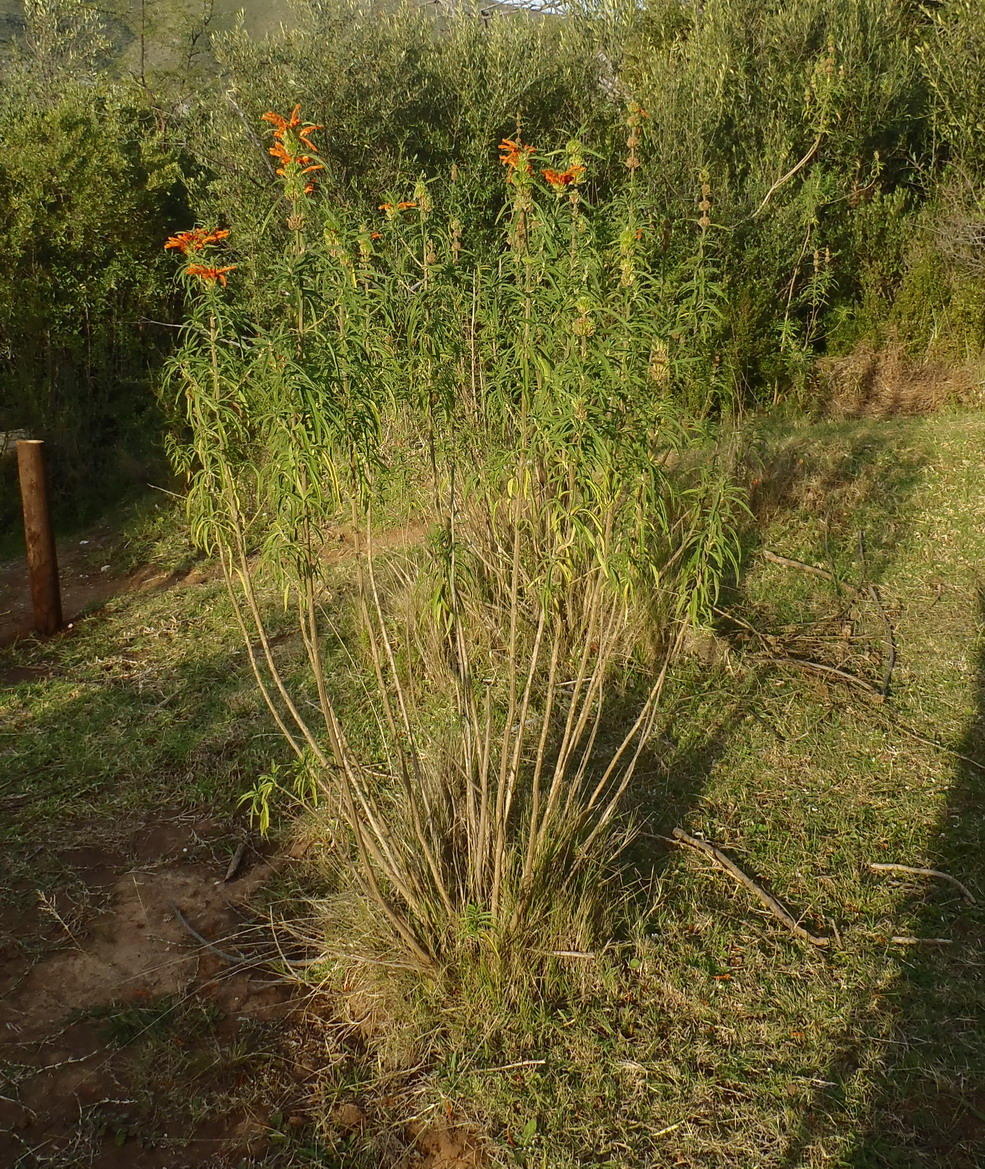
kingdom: Plantae
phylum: Tracheophyta
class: Magnoliopsida
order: Lamiales
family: Lamiaceae
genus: Leonotis
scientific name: Leonotis leonurus
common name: Lion's ear
